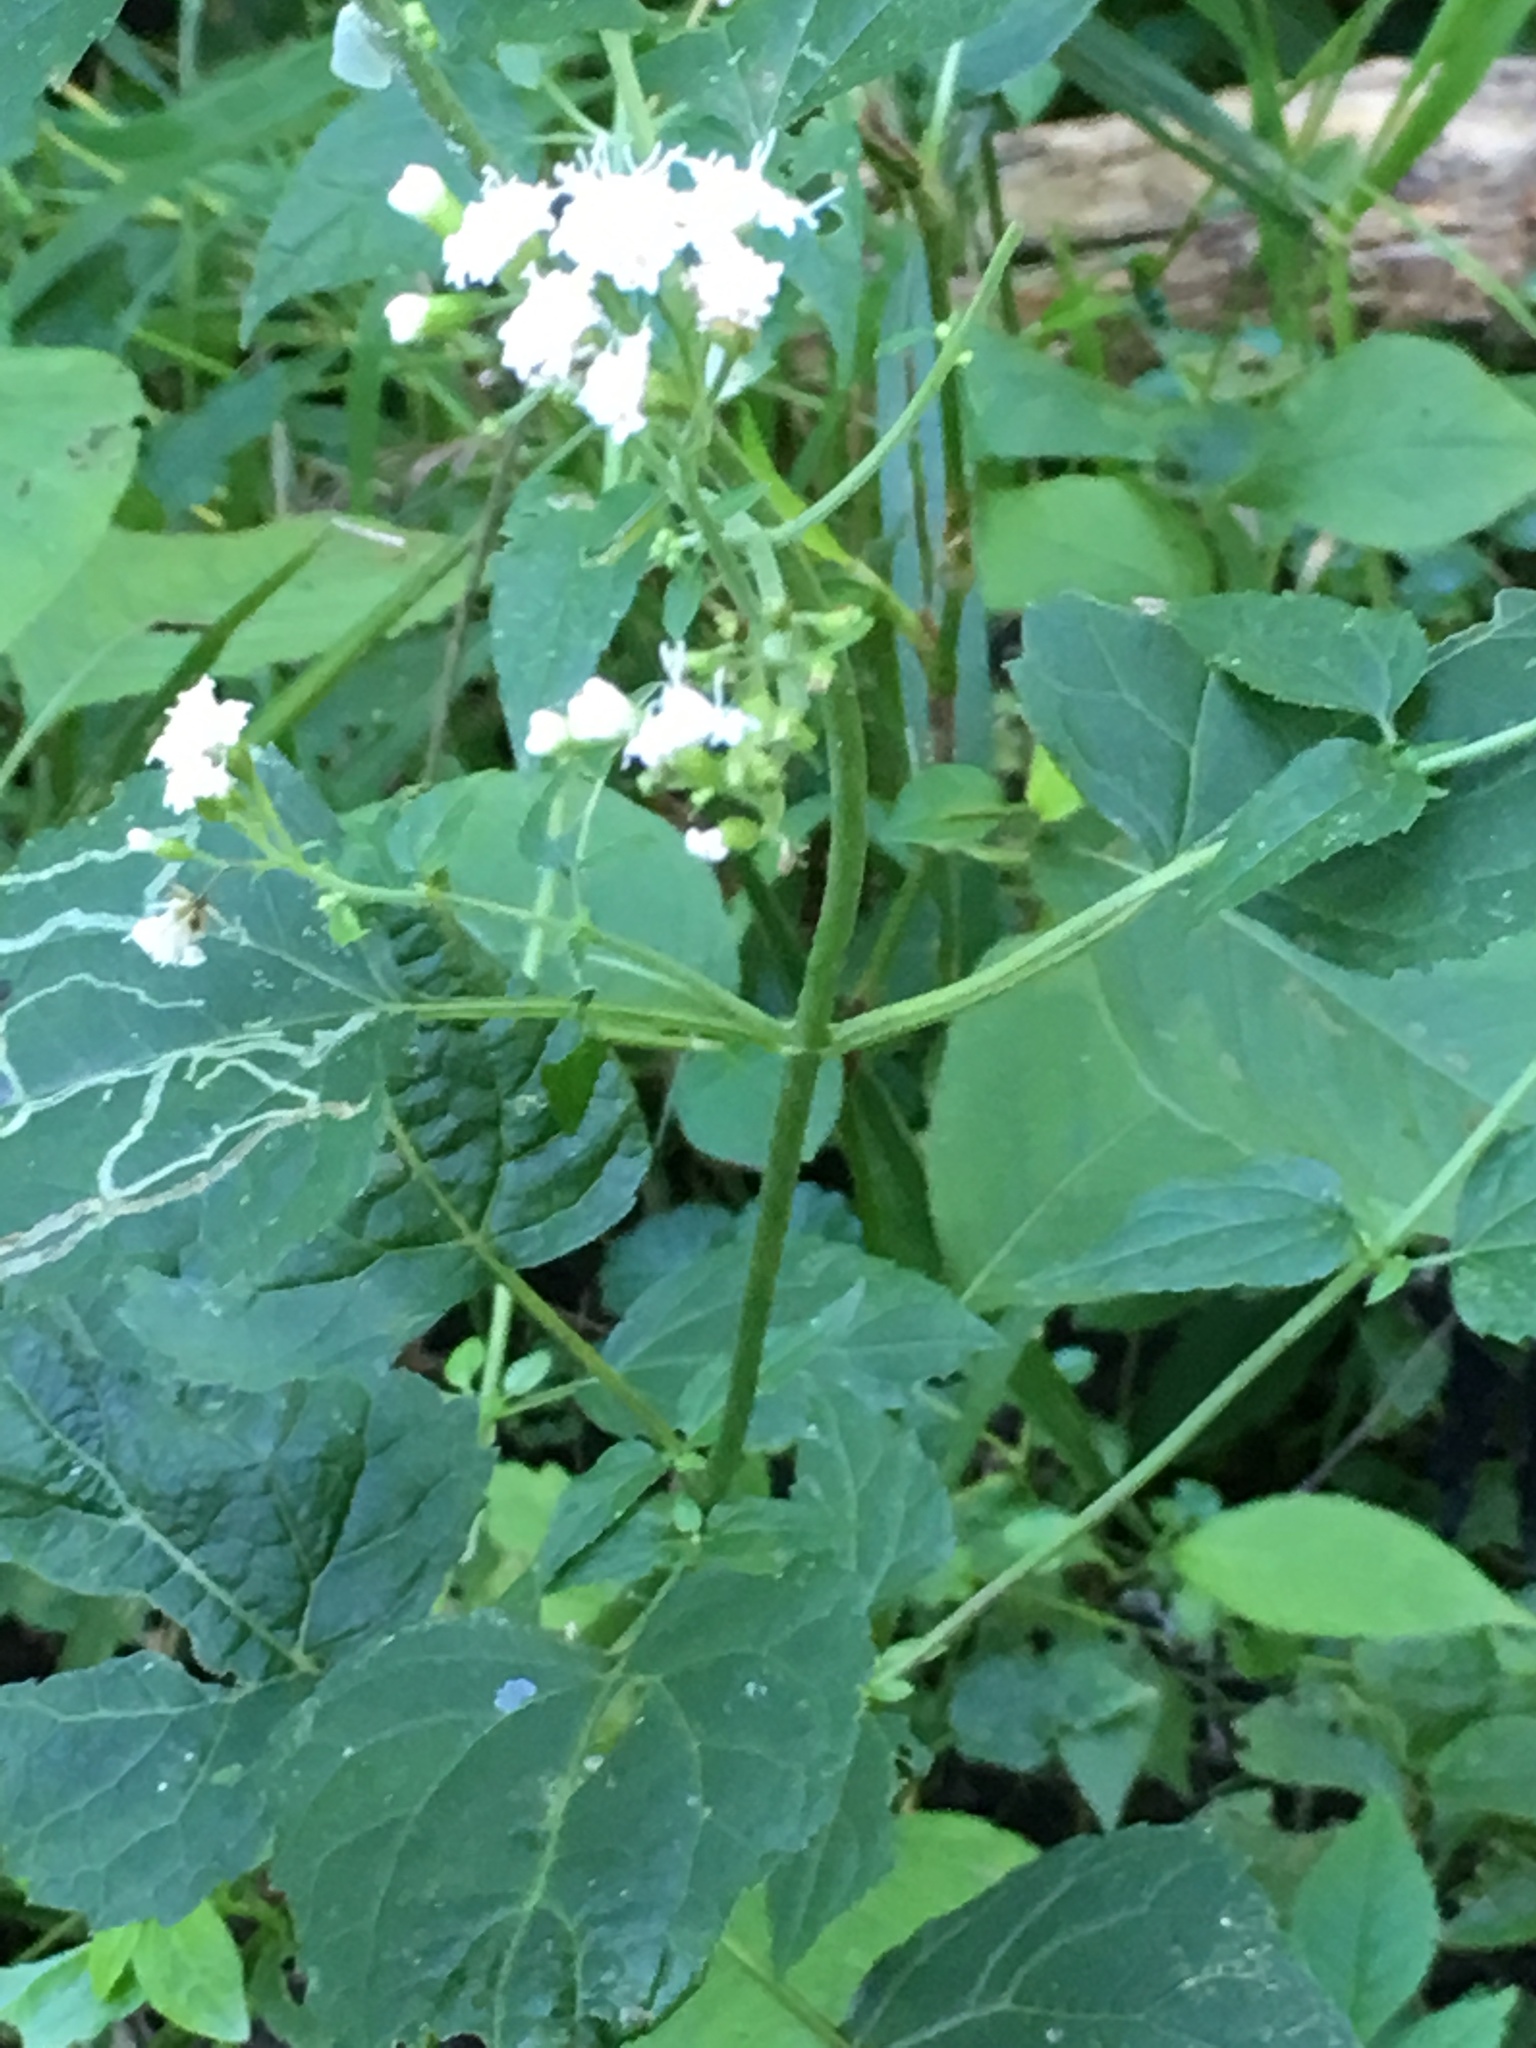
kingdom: Plantae
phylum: Tracheophyta
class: Magnoliopsida
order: Asterales
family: Asteraceae
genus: Ageratina
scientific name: Ageratina altissima
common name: White snakeroot
